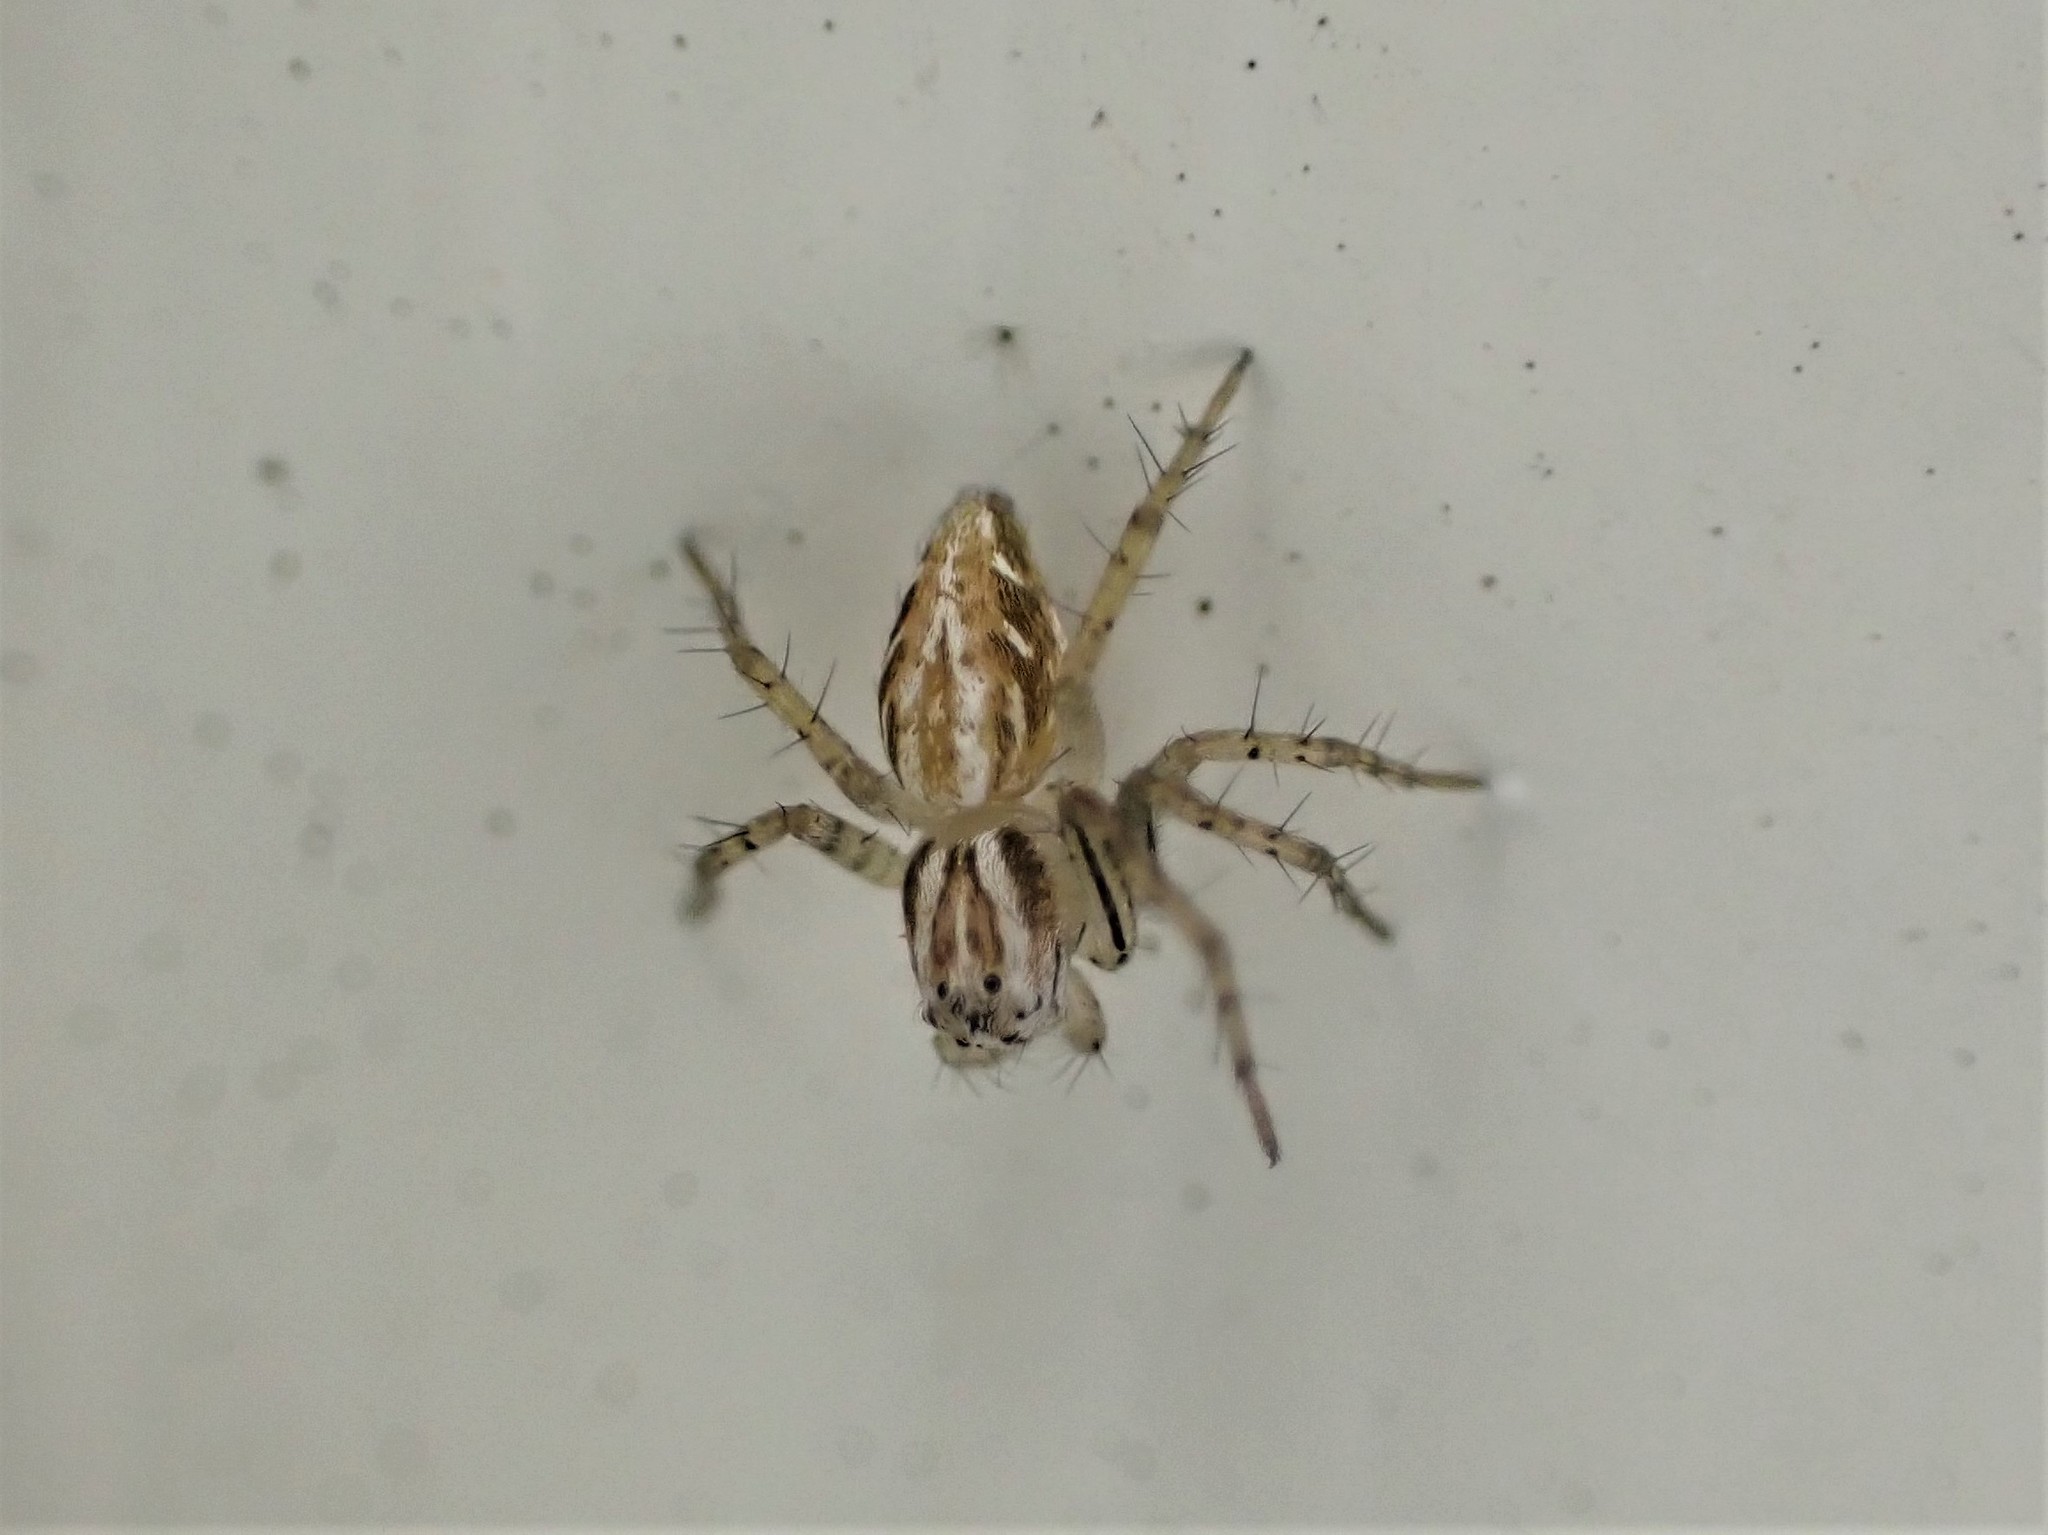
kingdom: Animalia
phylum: Arthropoda
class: Arachnida
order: Araneae
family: Oxyopidae
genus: Oxyopes
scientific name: Oxyopes gracilipes
